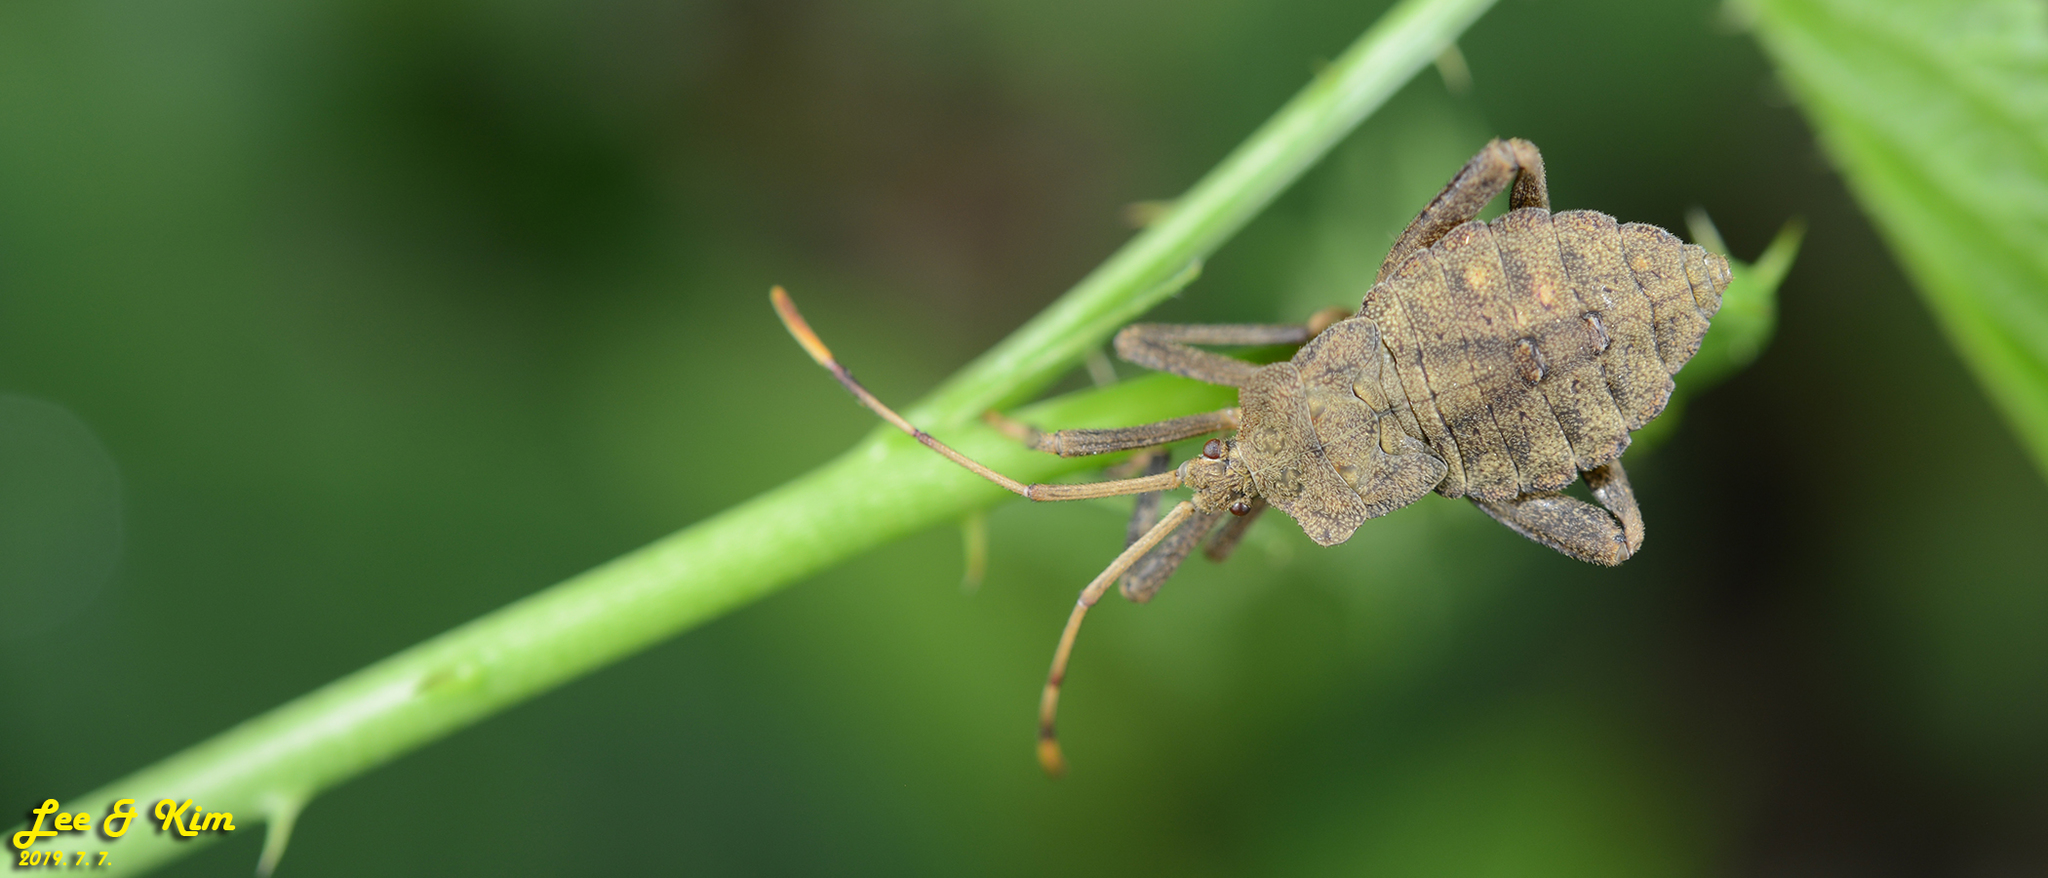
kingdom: Animalia
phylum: Arthropoda
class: Insecta
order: Hemiptera
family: Coreidae
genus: Molipteryx
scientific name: Molipteryx fuliginosa
